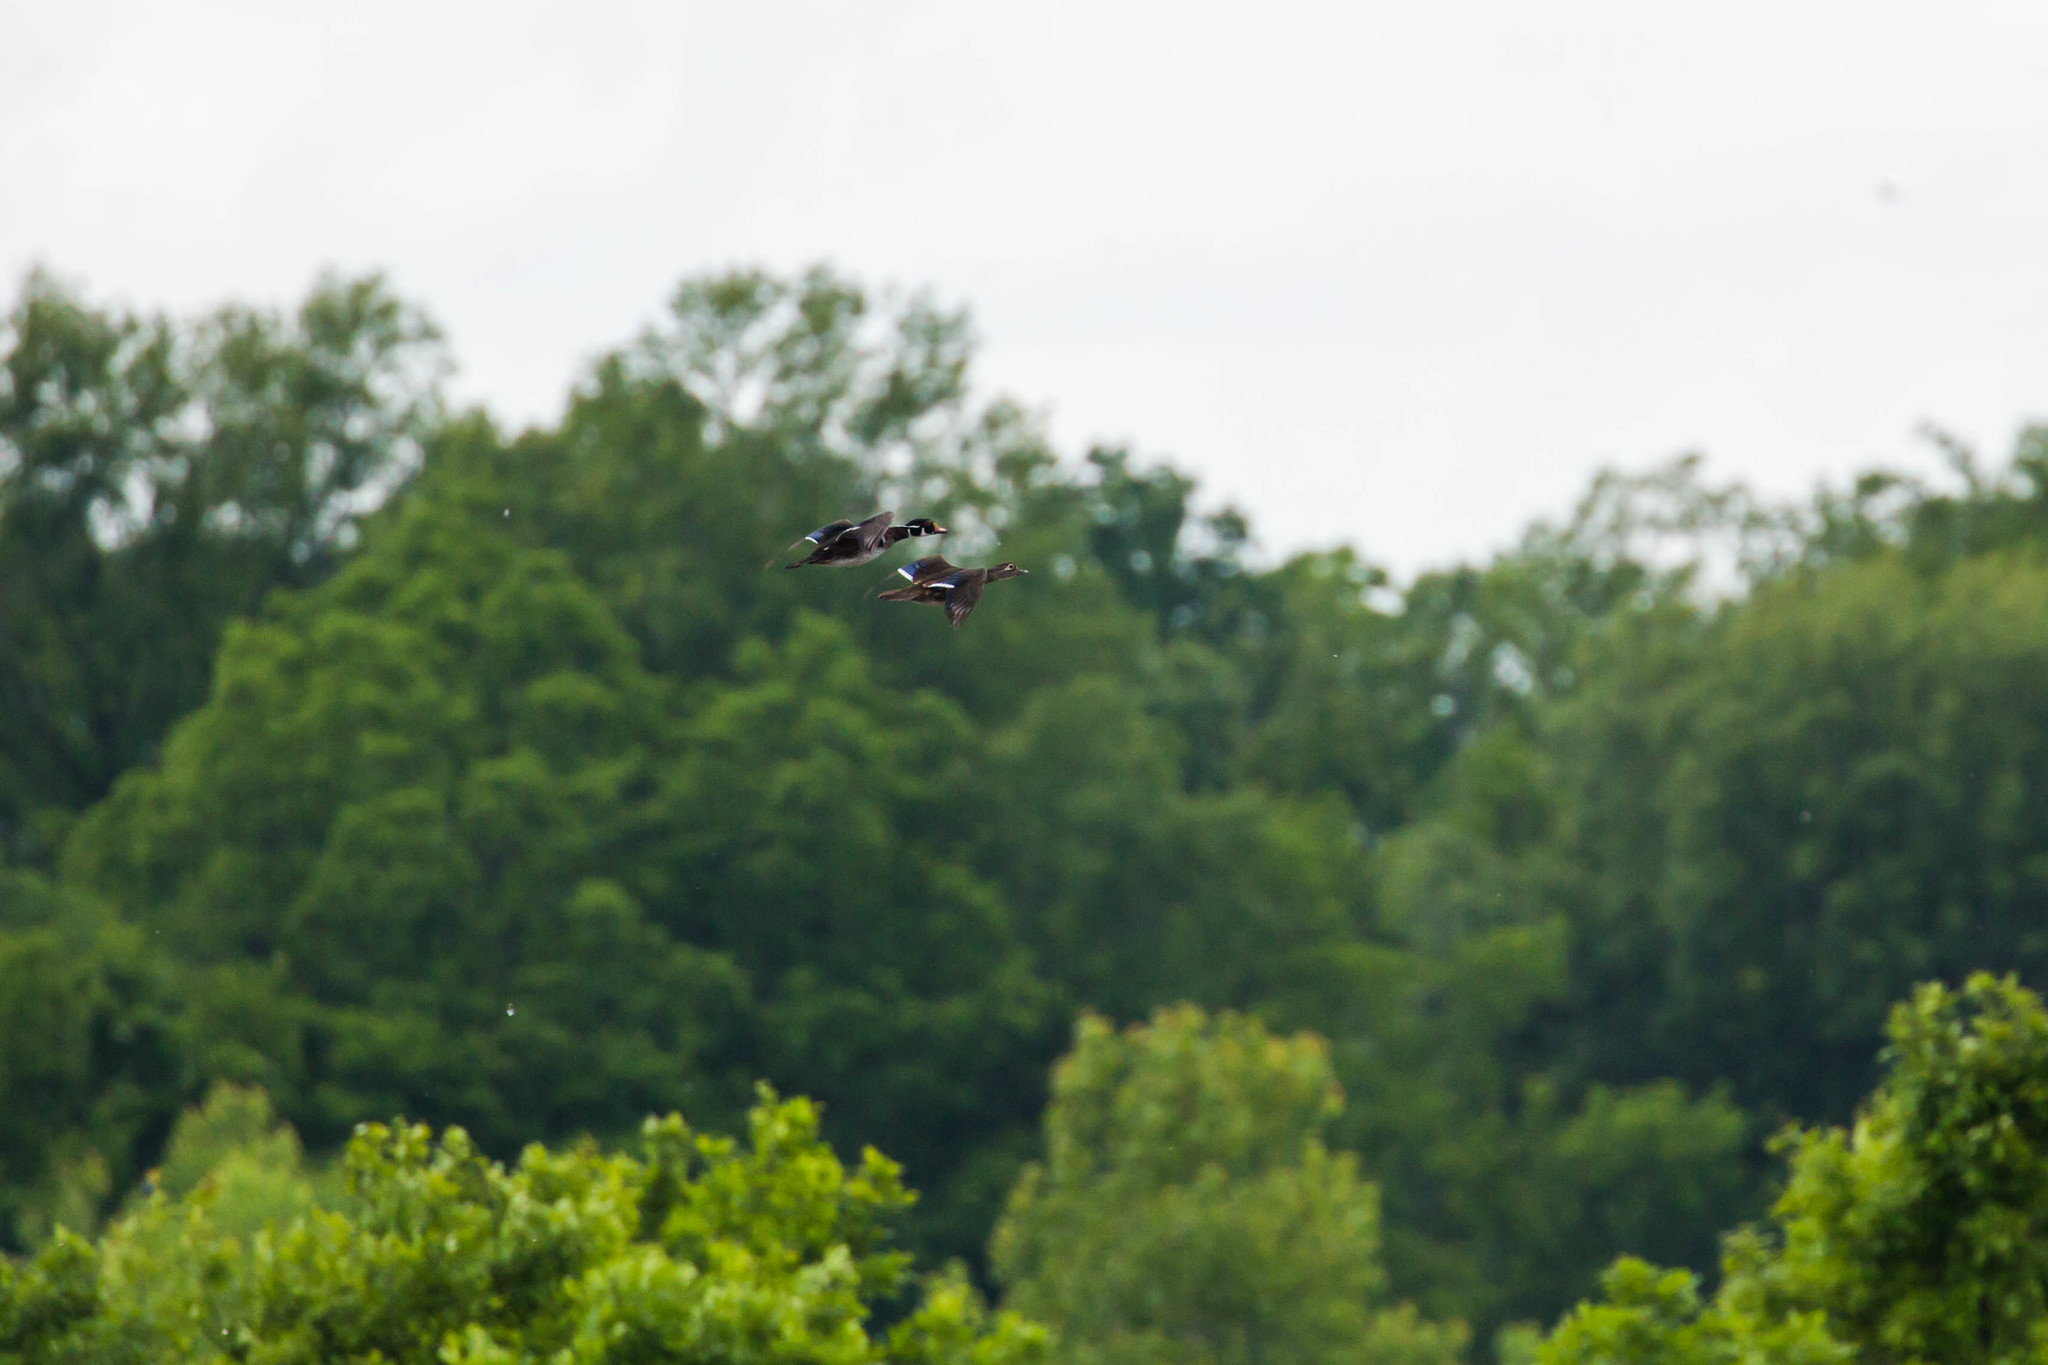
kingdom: Animalia
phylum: Chordata
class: Aves
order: Anseriformes
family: Anatidae
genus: Aix
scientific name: Aix sponsa
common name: Wood duck
